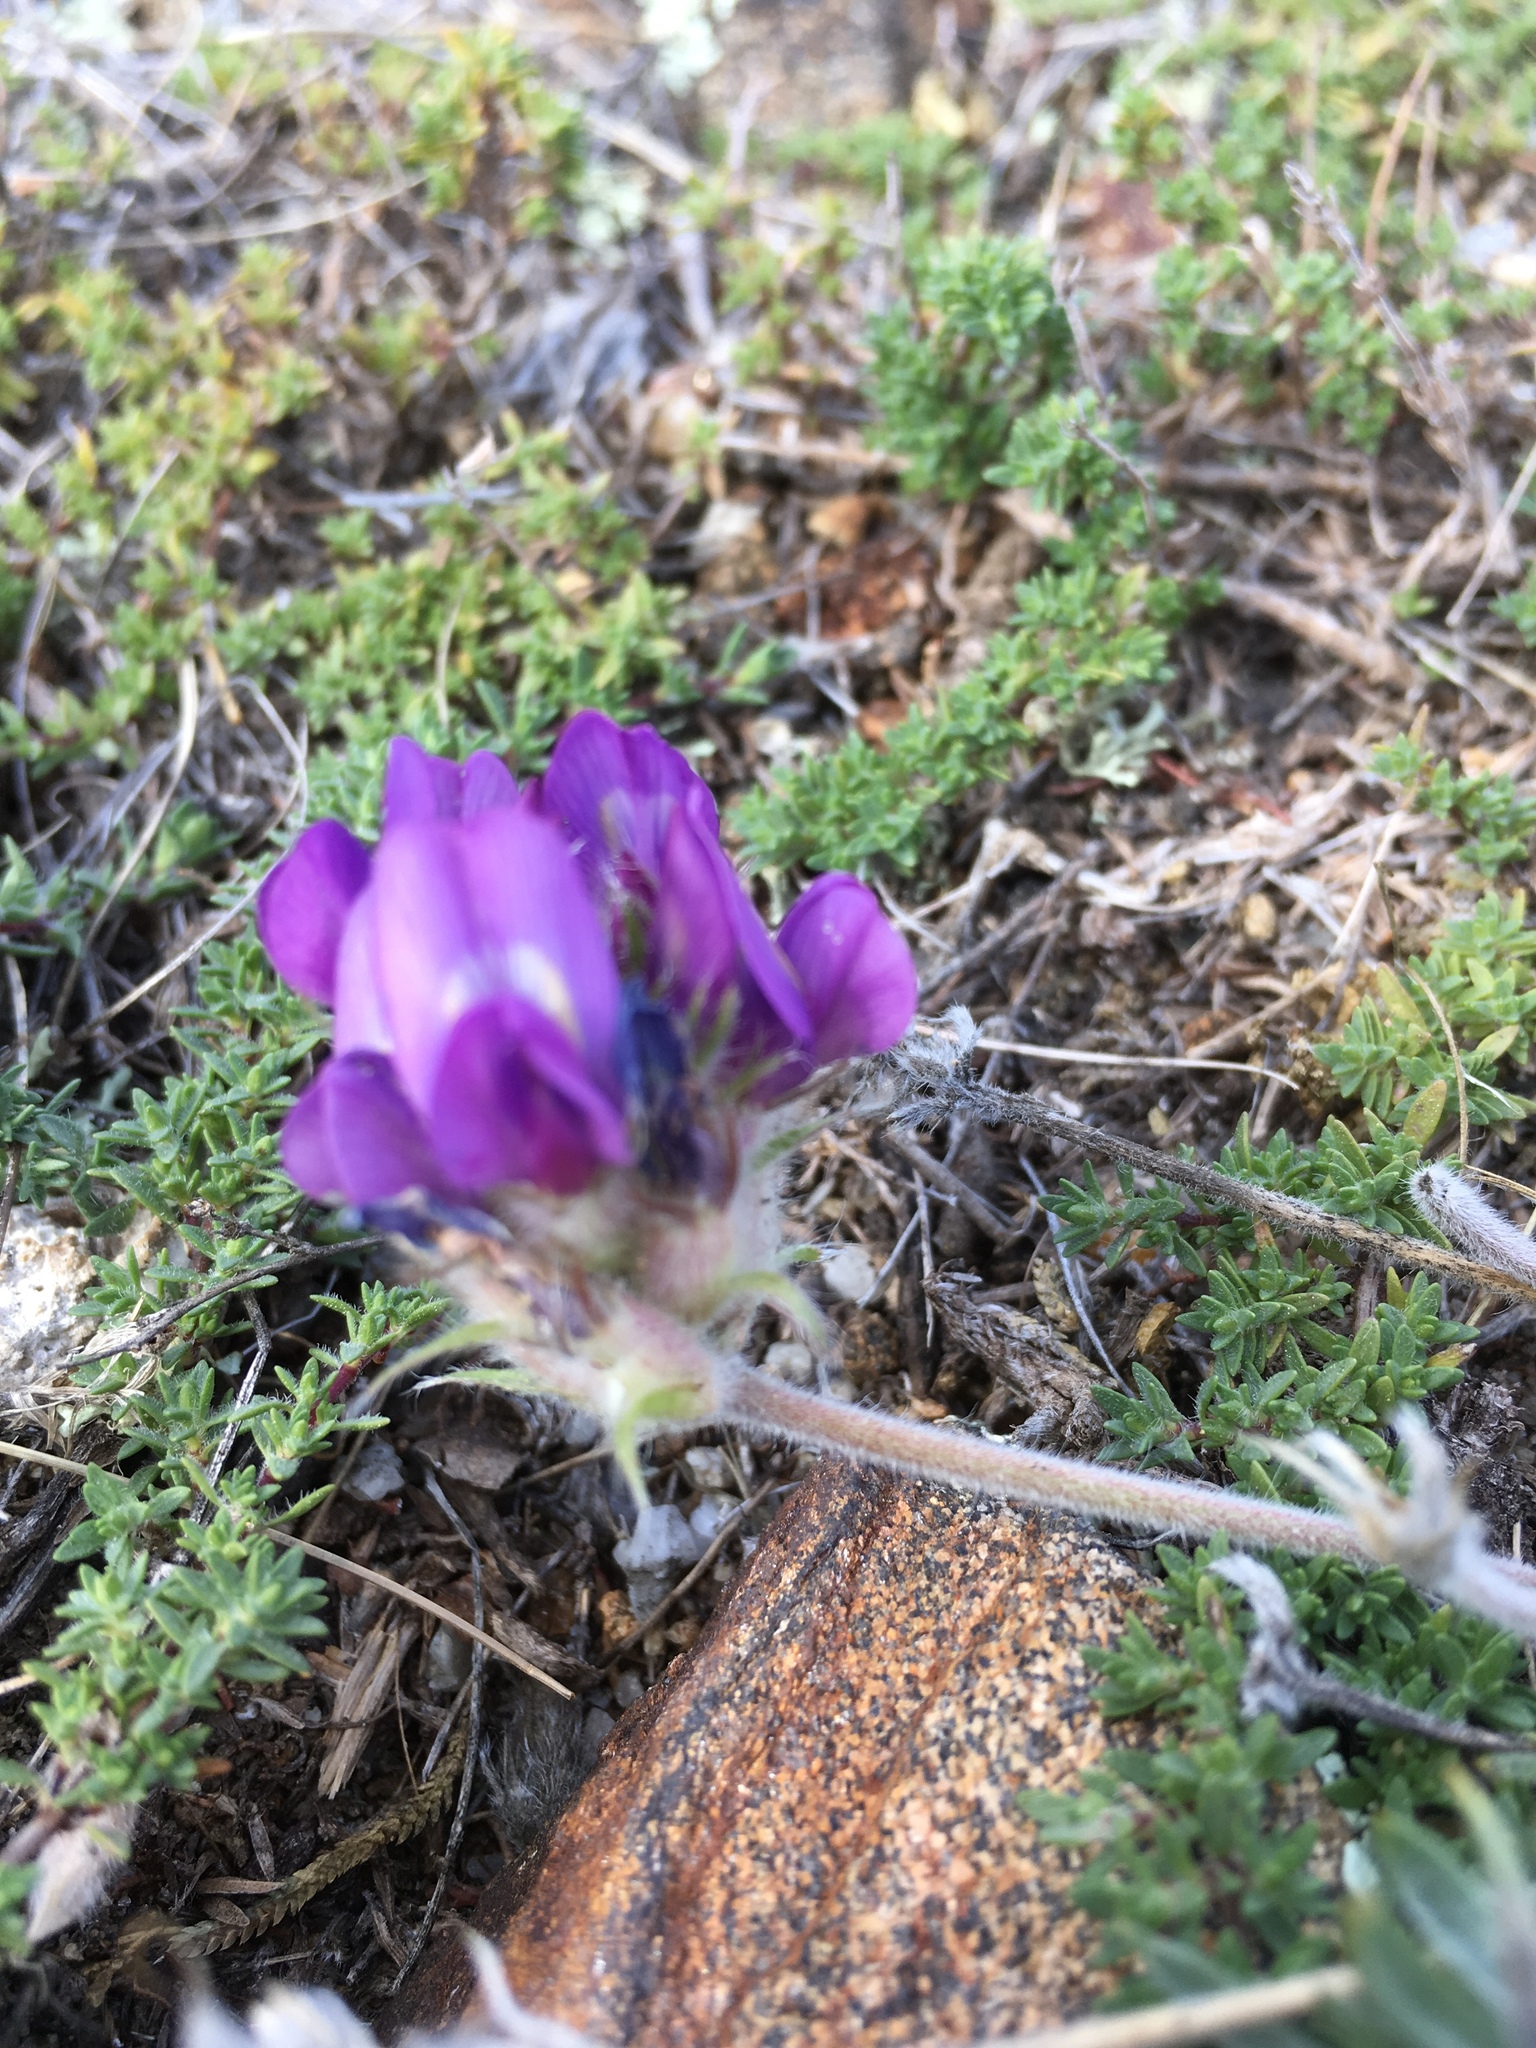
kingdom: Plantae
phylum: Tracheophyta
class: Magnoliopsida
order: Fabales
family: Fabaceae
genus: Oxytropis
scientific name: Oxytropis turczaninovii
